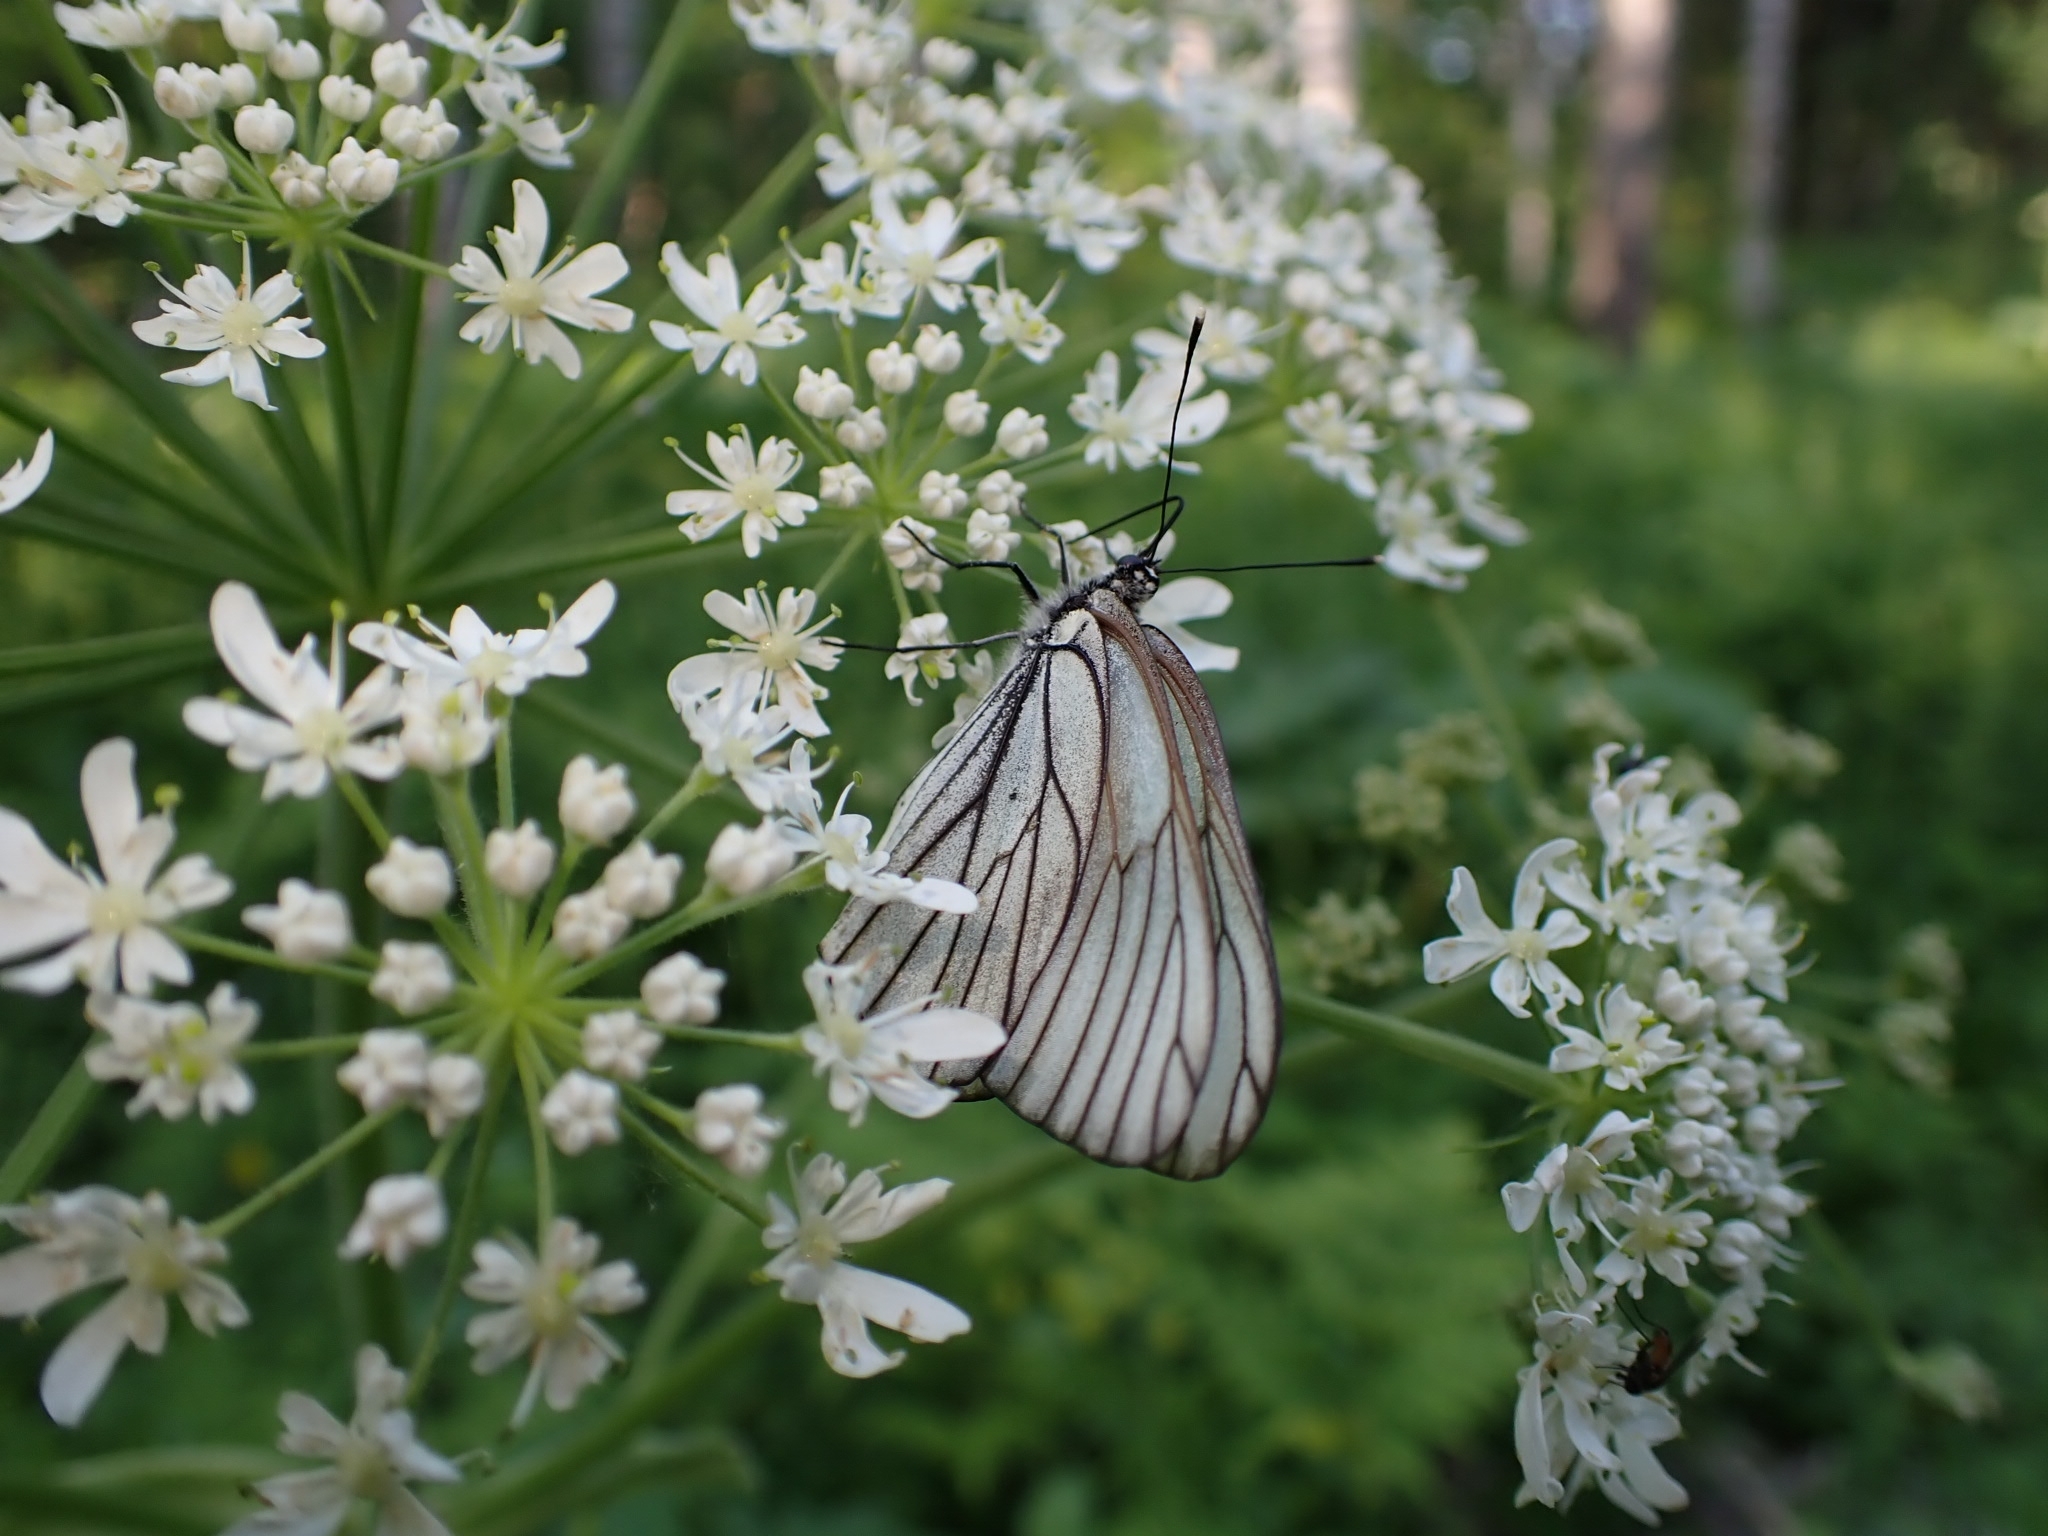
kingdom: Animalia
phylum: Arthropoda
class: Insecta
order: Lepidoptera
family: Pieridae
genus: Aporia
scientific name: Aporia crataegi
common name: Black-veined white
